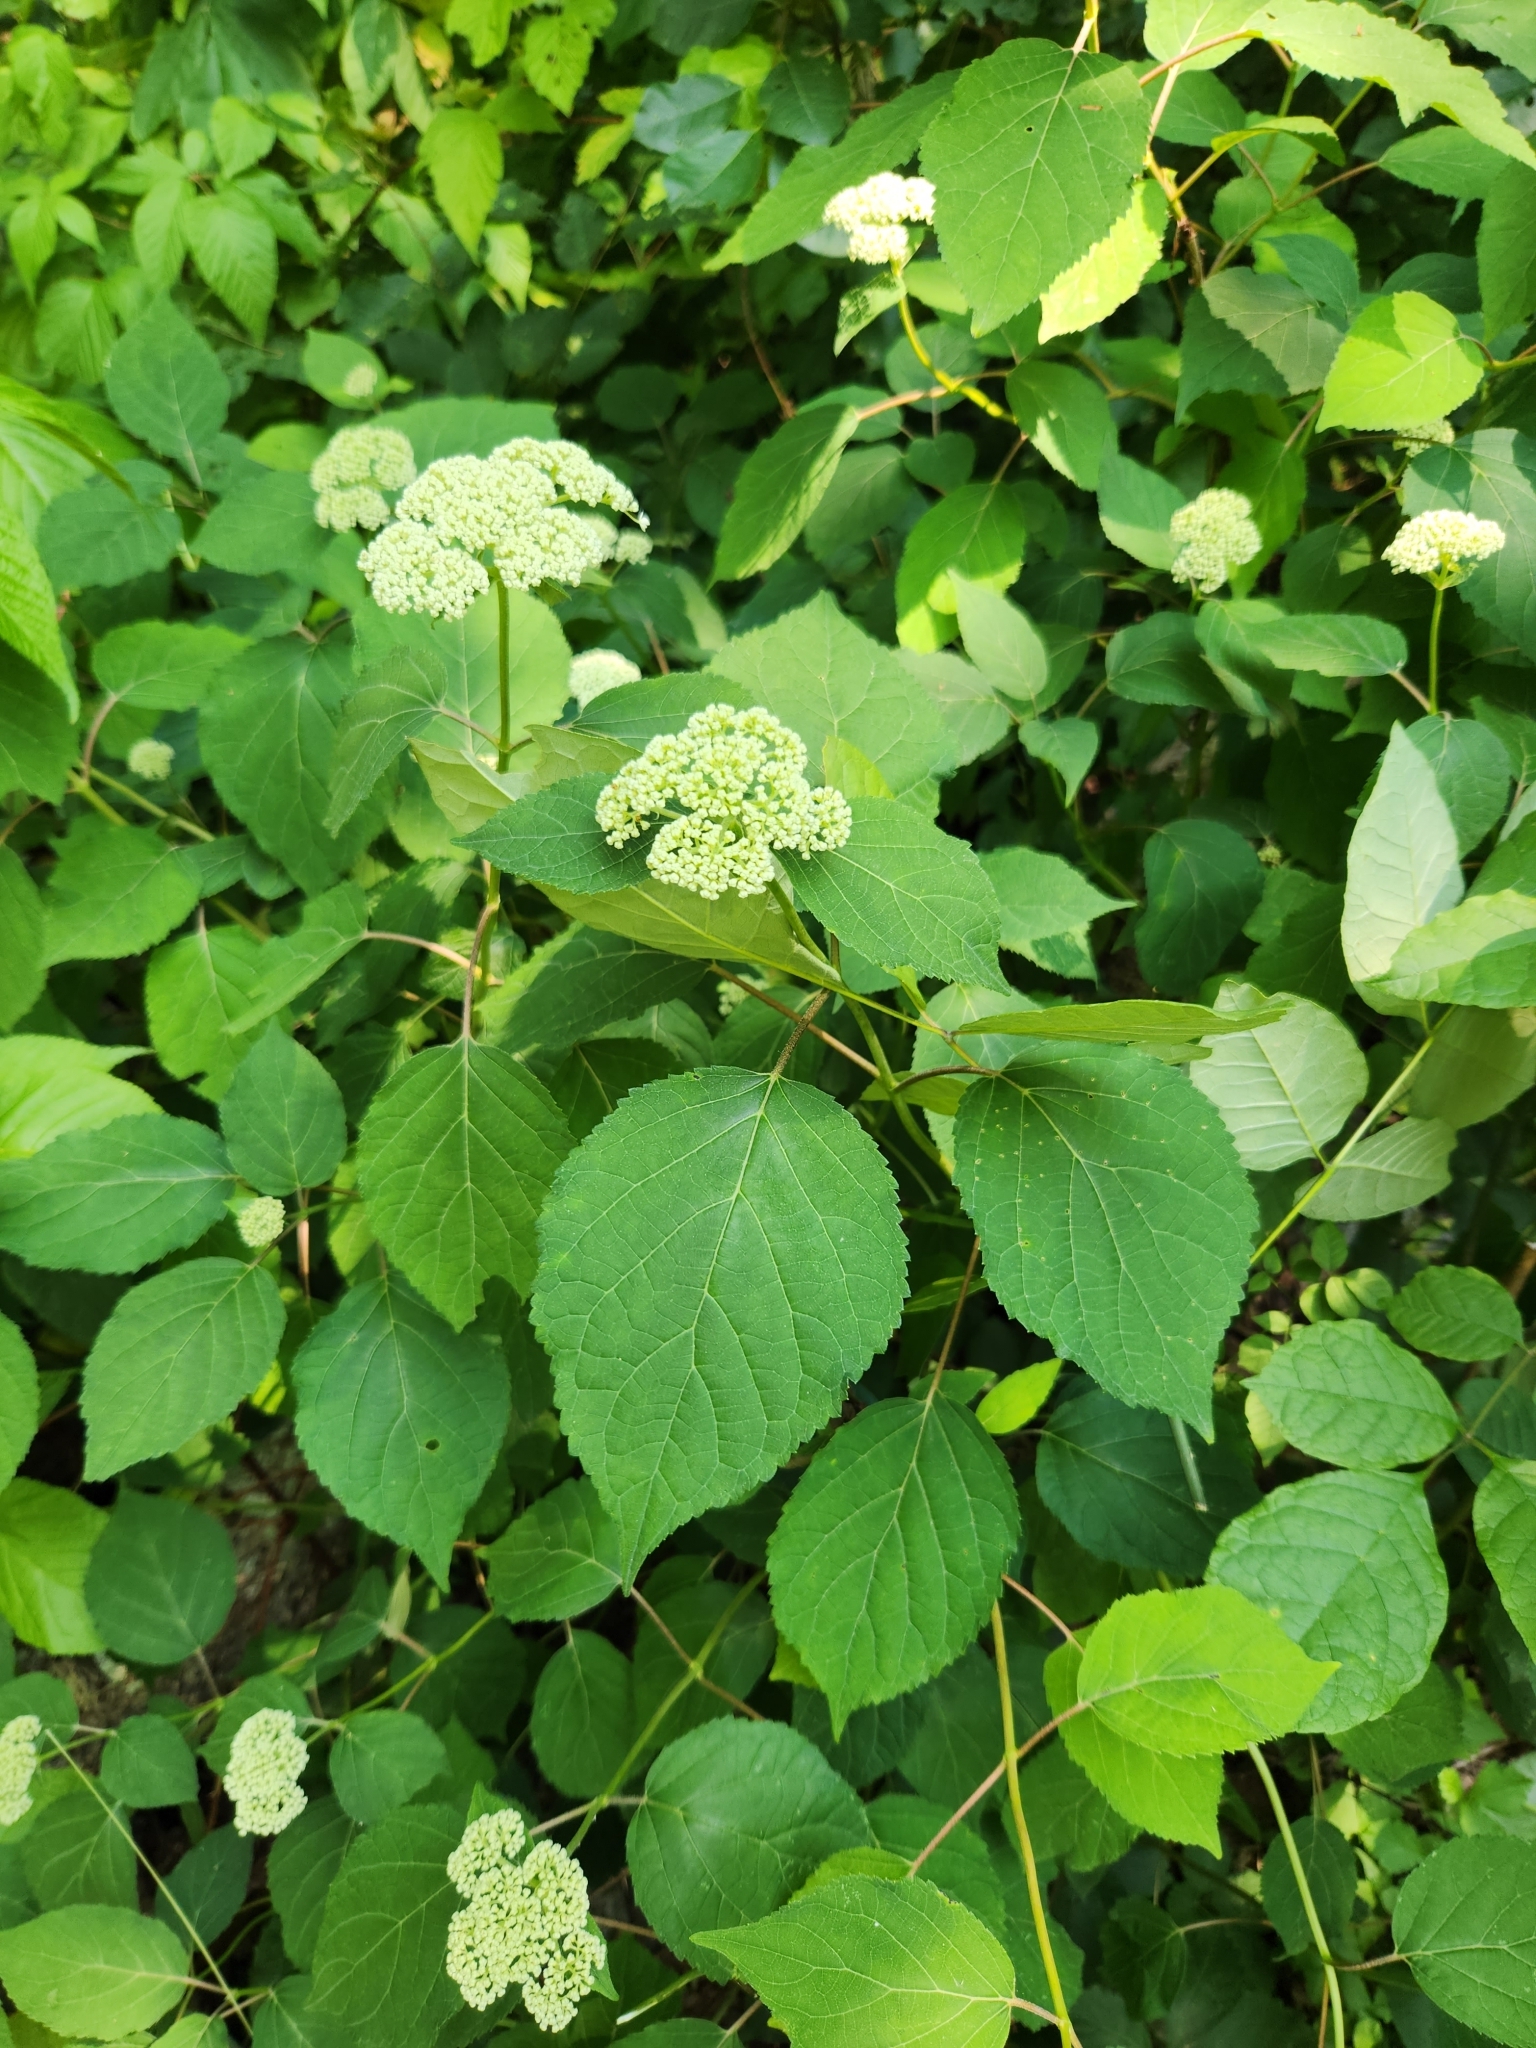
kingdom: Plantae
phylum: Tracheophyta
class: Magnoliopsida
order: Cornales
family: Hydrangeaceae
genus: Hydrangea
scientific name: Hydrangea arborescens
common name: Sevenbark
